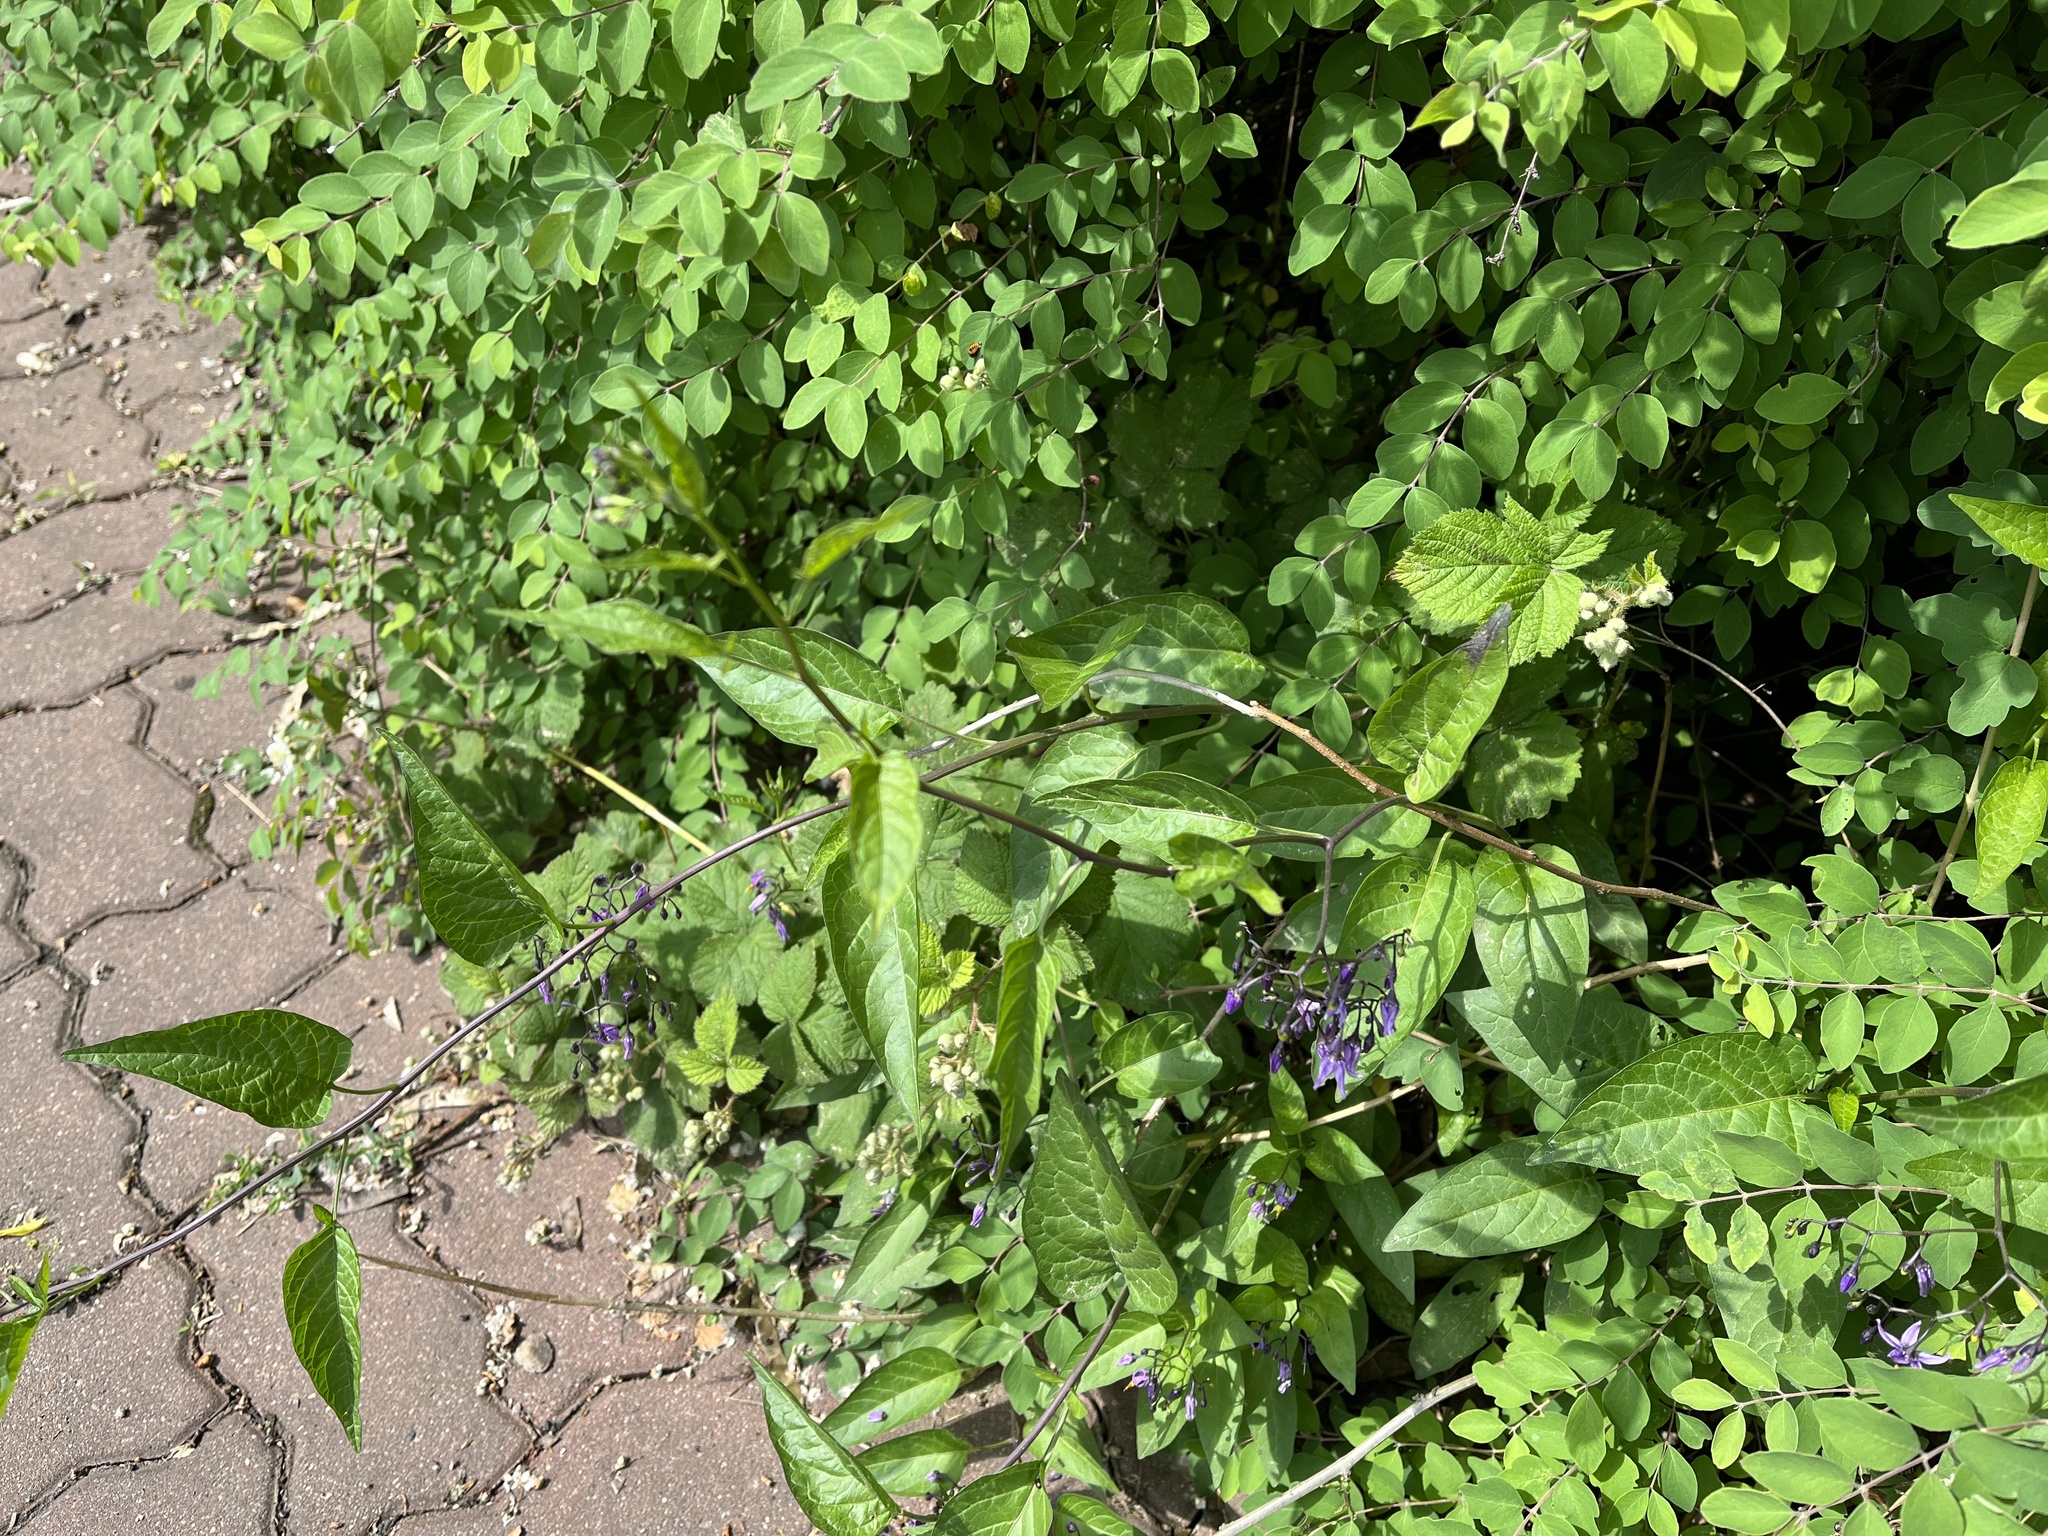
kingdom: Plantae
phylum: Tracheophyta
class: Magnoliopsida
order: Solanales
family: Solanaceae
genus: Solanum
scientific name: Solanum dulcamara
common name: Climbing nightshade
